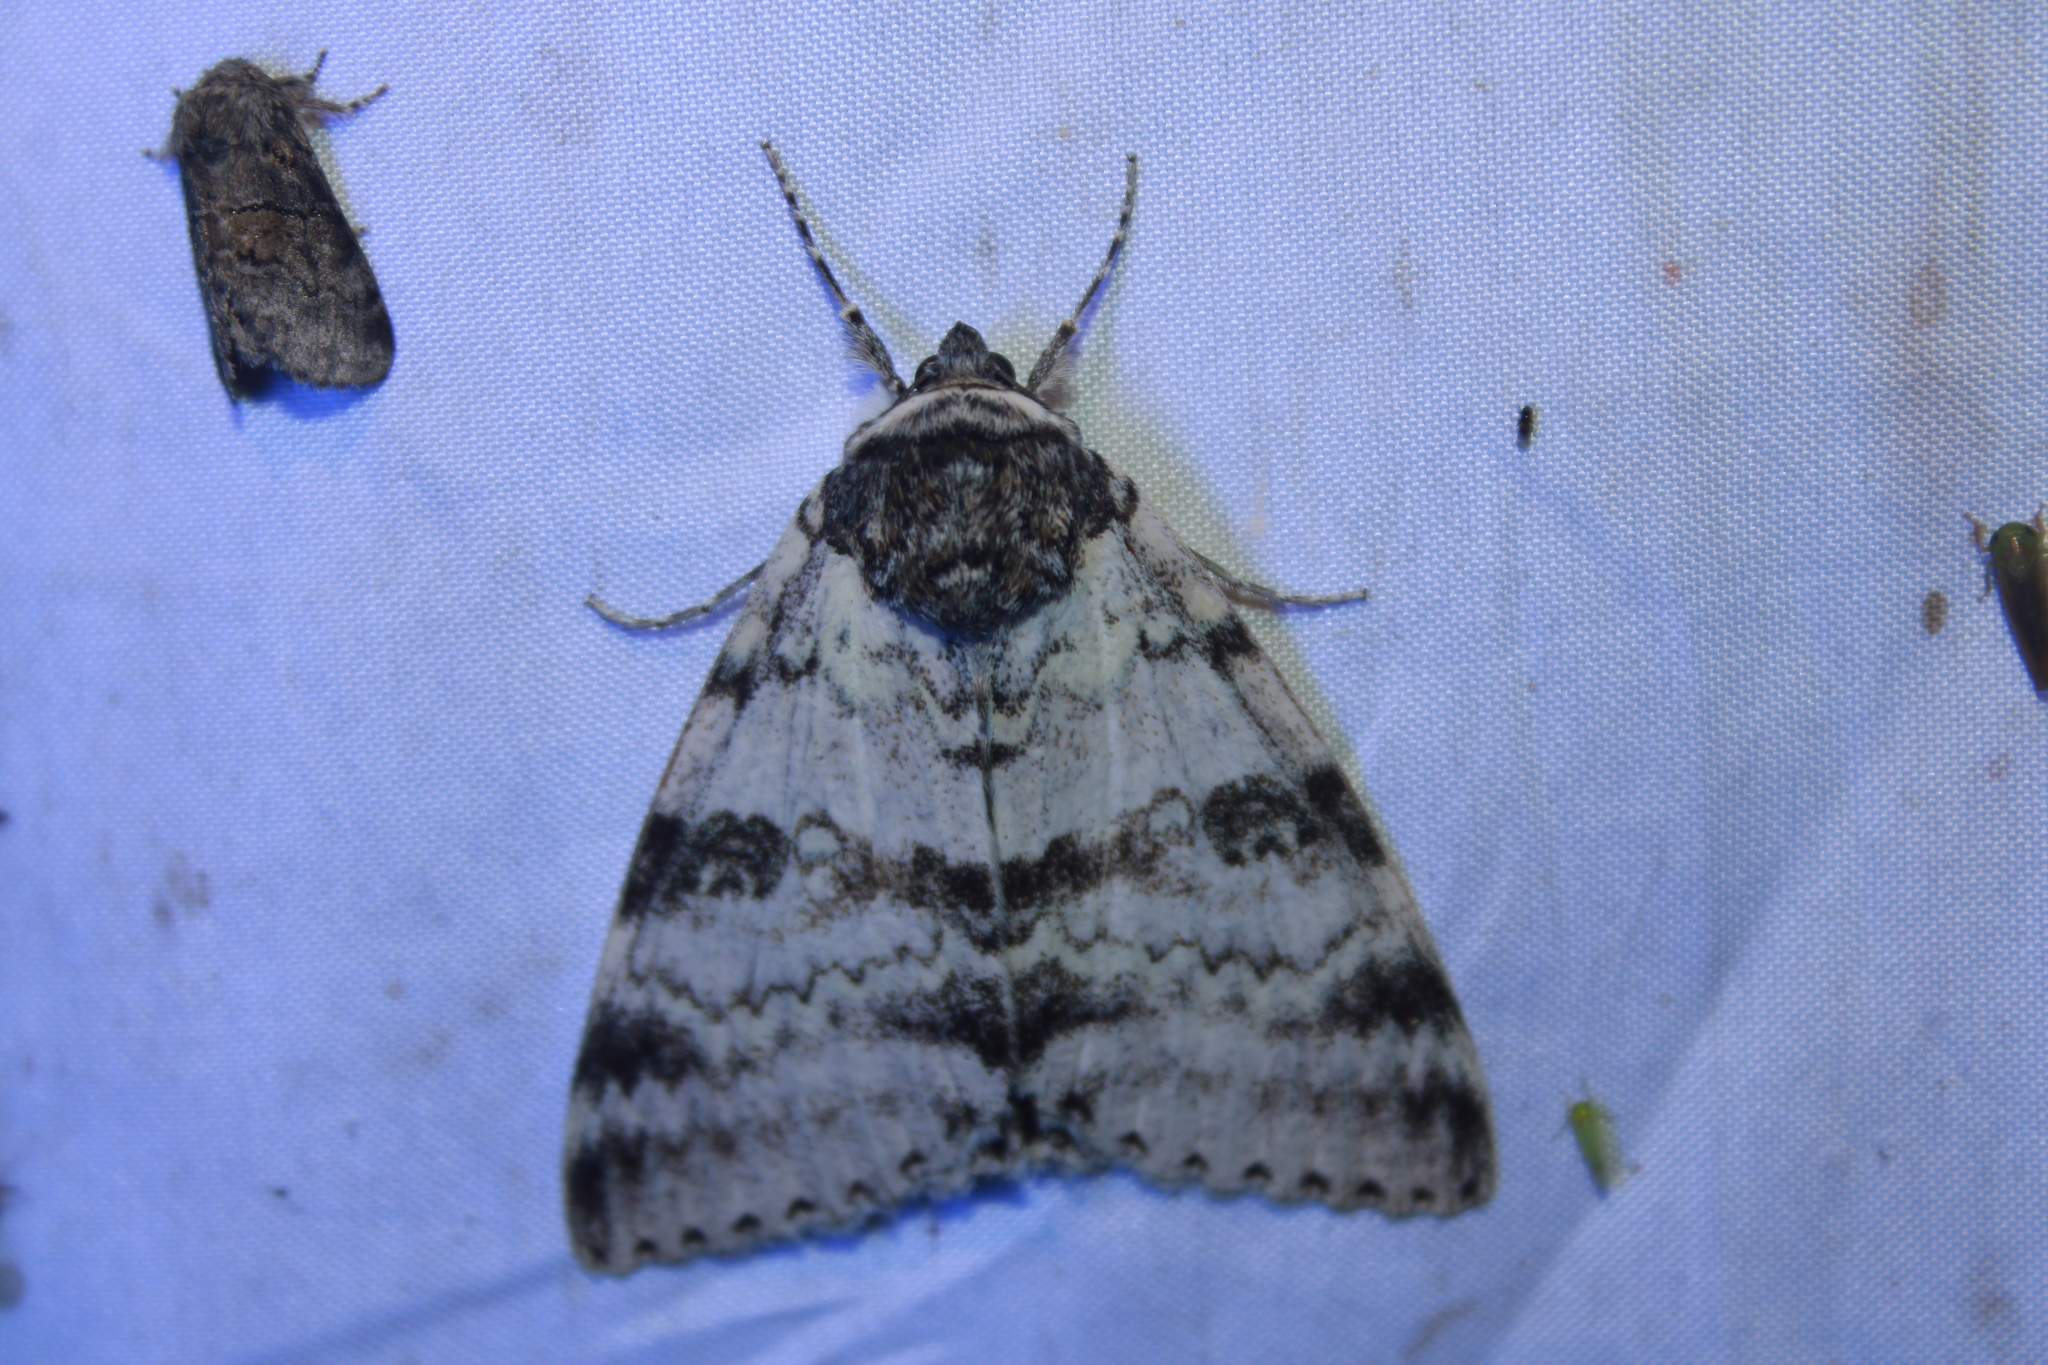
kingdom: Animalia
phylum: Arthropoda
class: Insecta
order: Lepidoptera
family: Erebidae
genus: Catocala
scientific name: Catocala relicta
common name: White underwing
